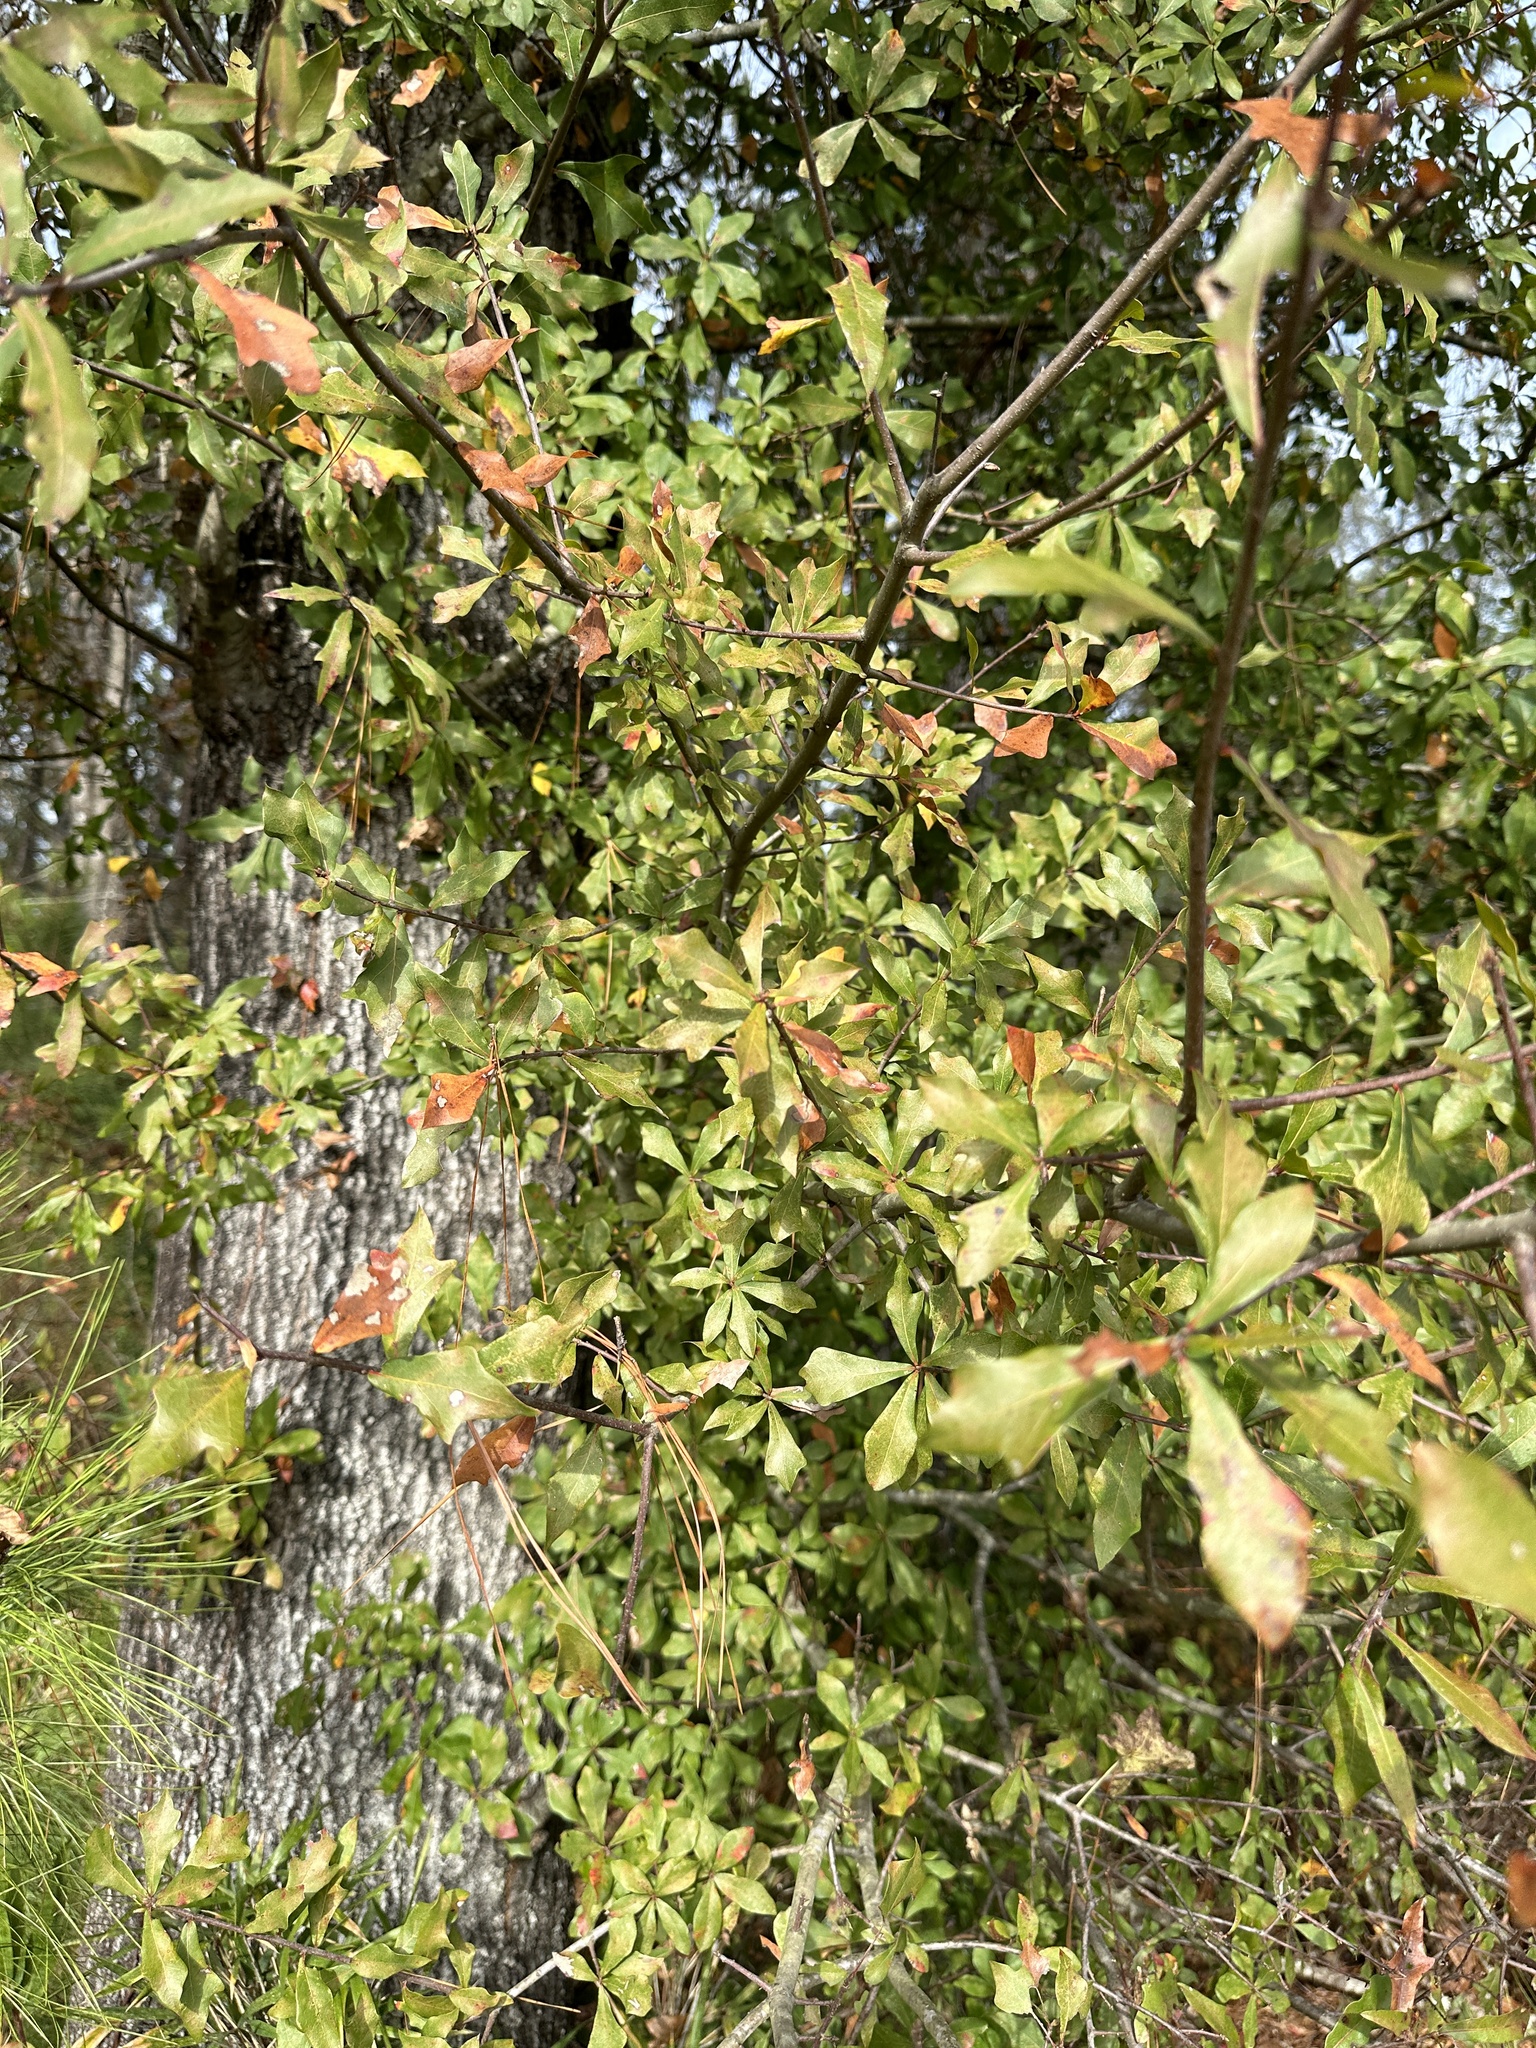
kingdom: Plantae
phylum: Tracheophyta
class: Magnoliopsida
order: Fagales
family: Fagaceae
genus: Quercus
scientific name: Quercus nigra
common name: Water oak
